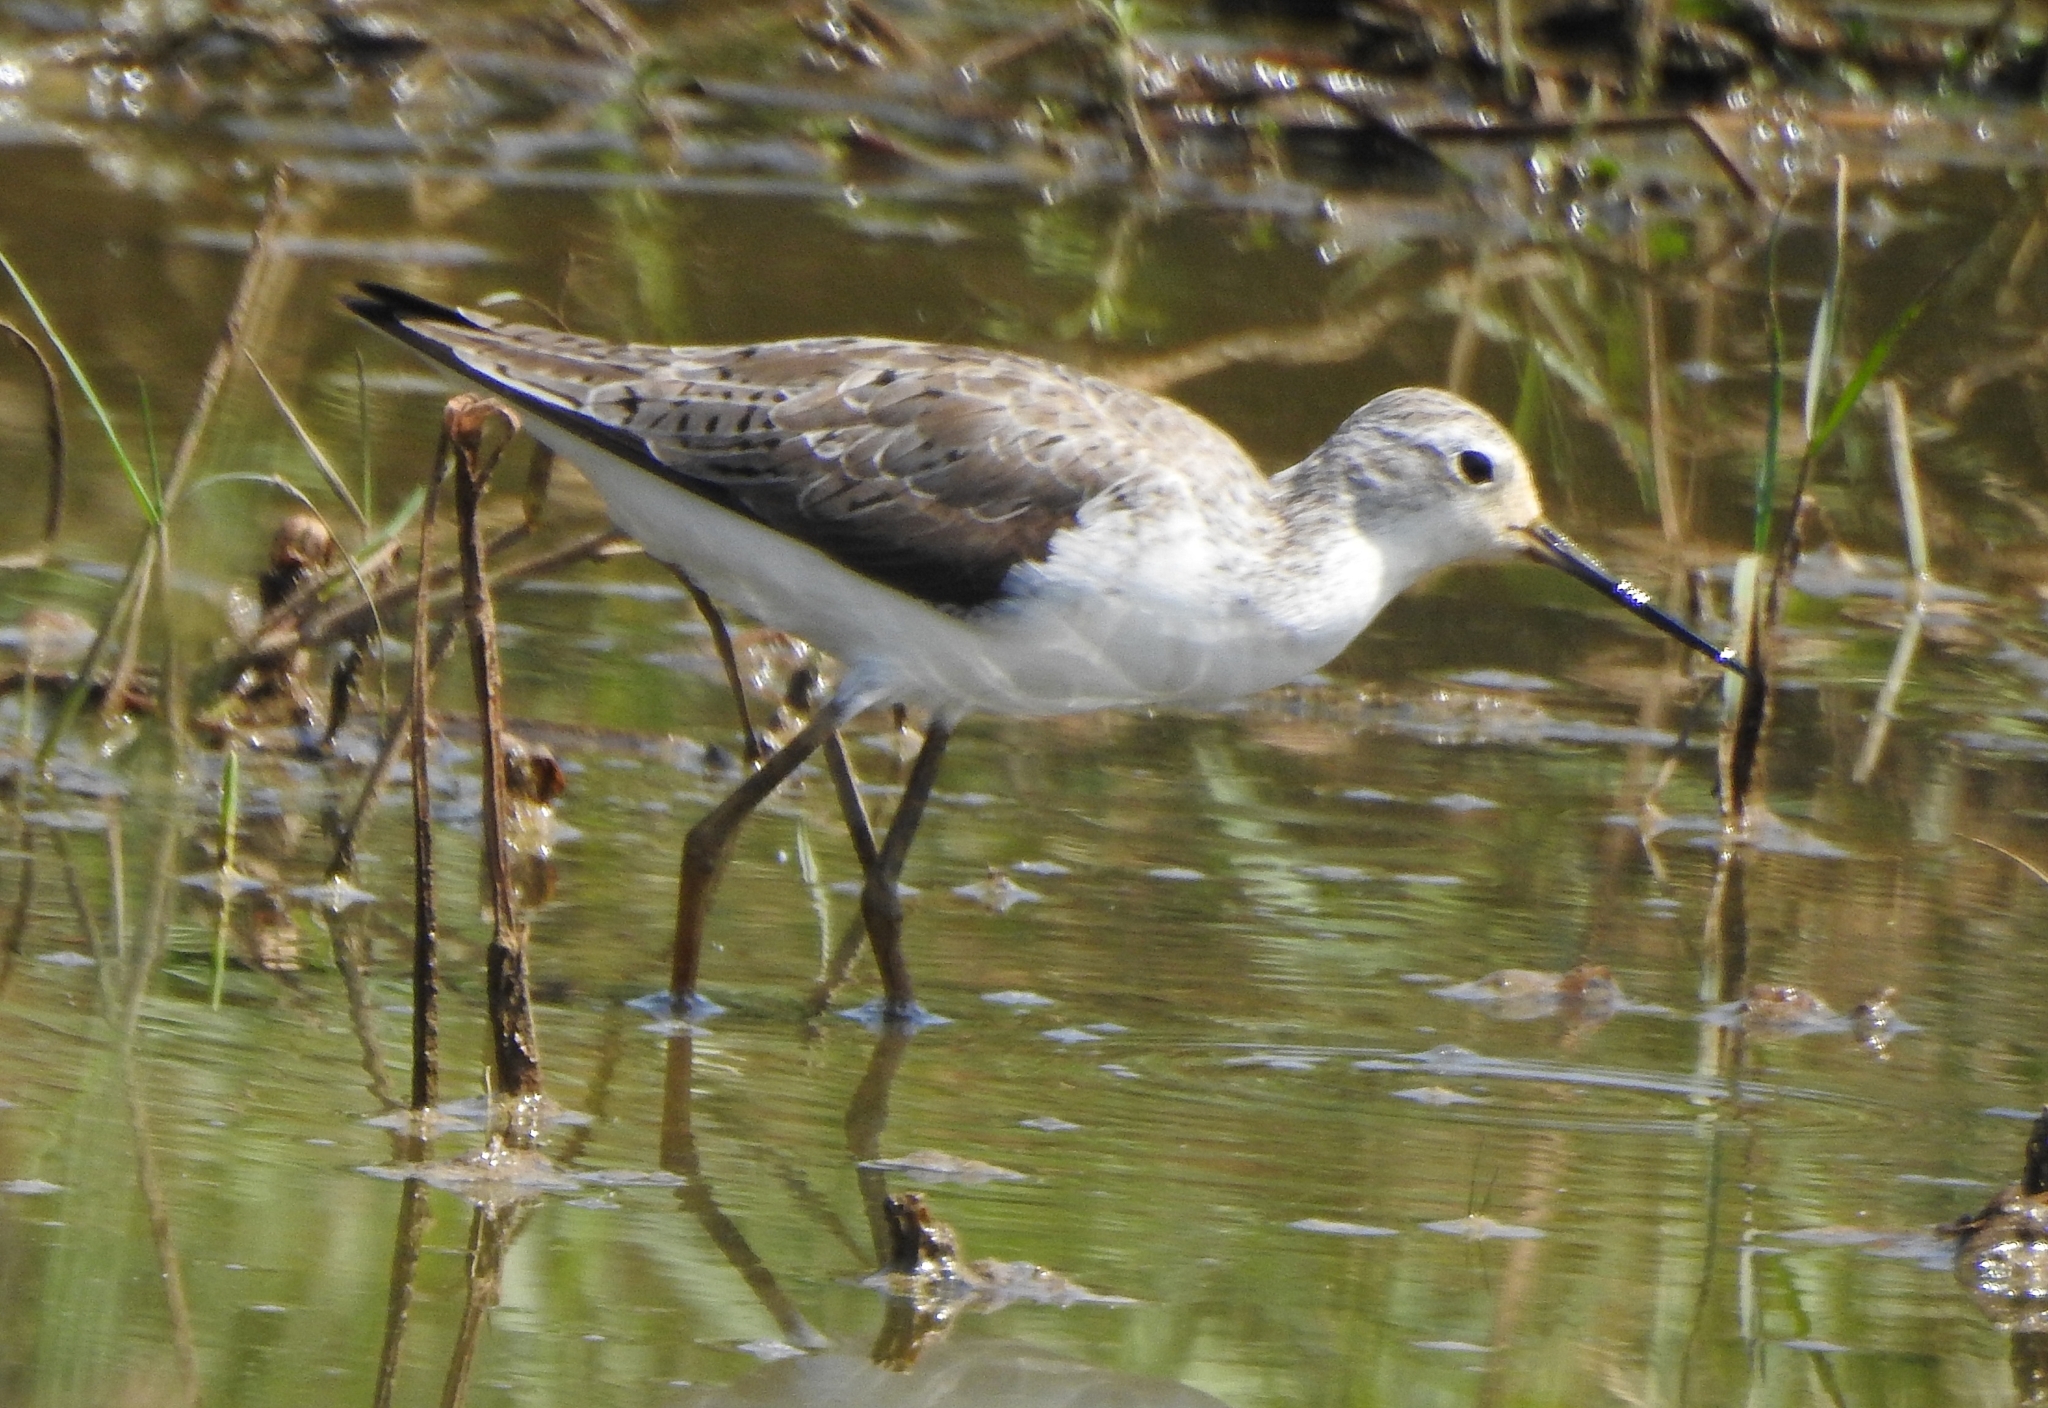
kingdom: Animalia
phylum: Chordata
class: Aves
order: Charadriiformes
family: Scolopacidae
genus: Tringa
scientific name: Tringa stagnatilis
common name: Marsh sandpiper
